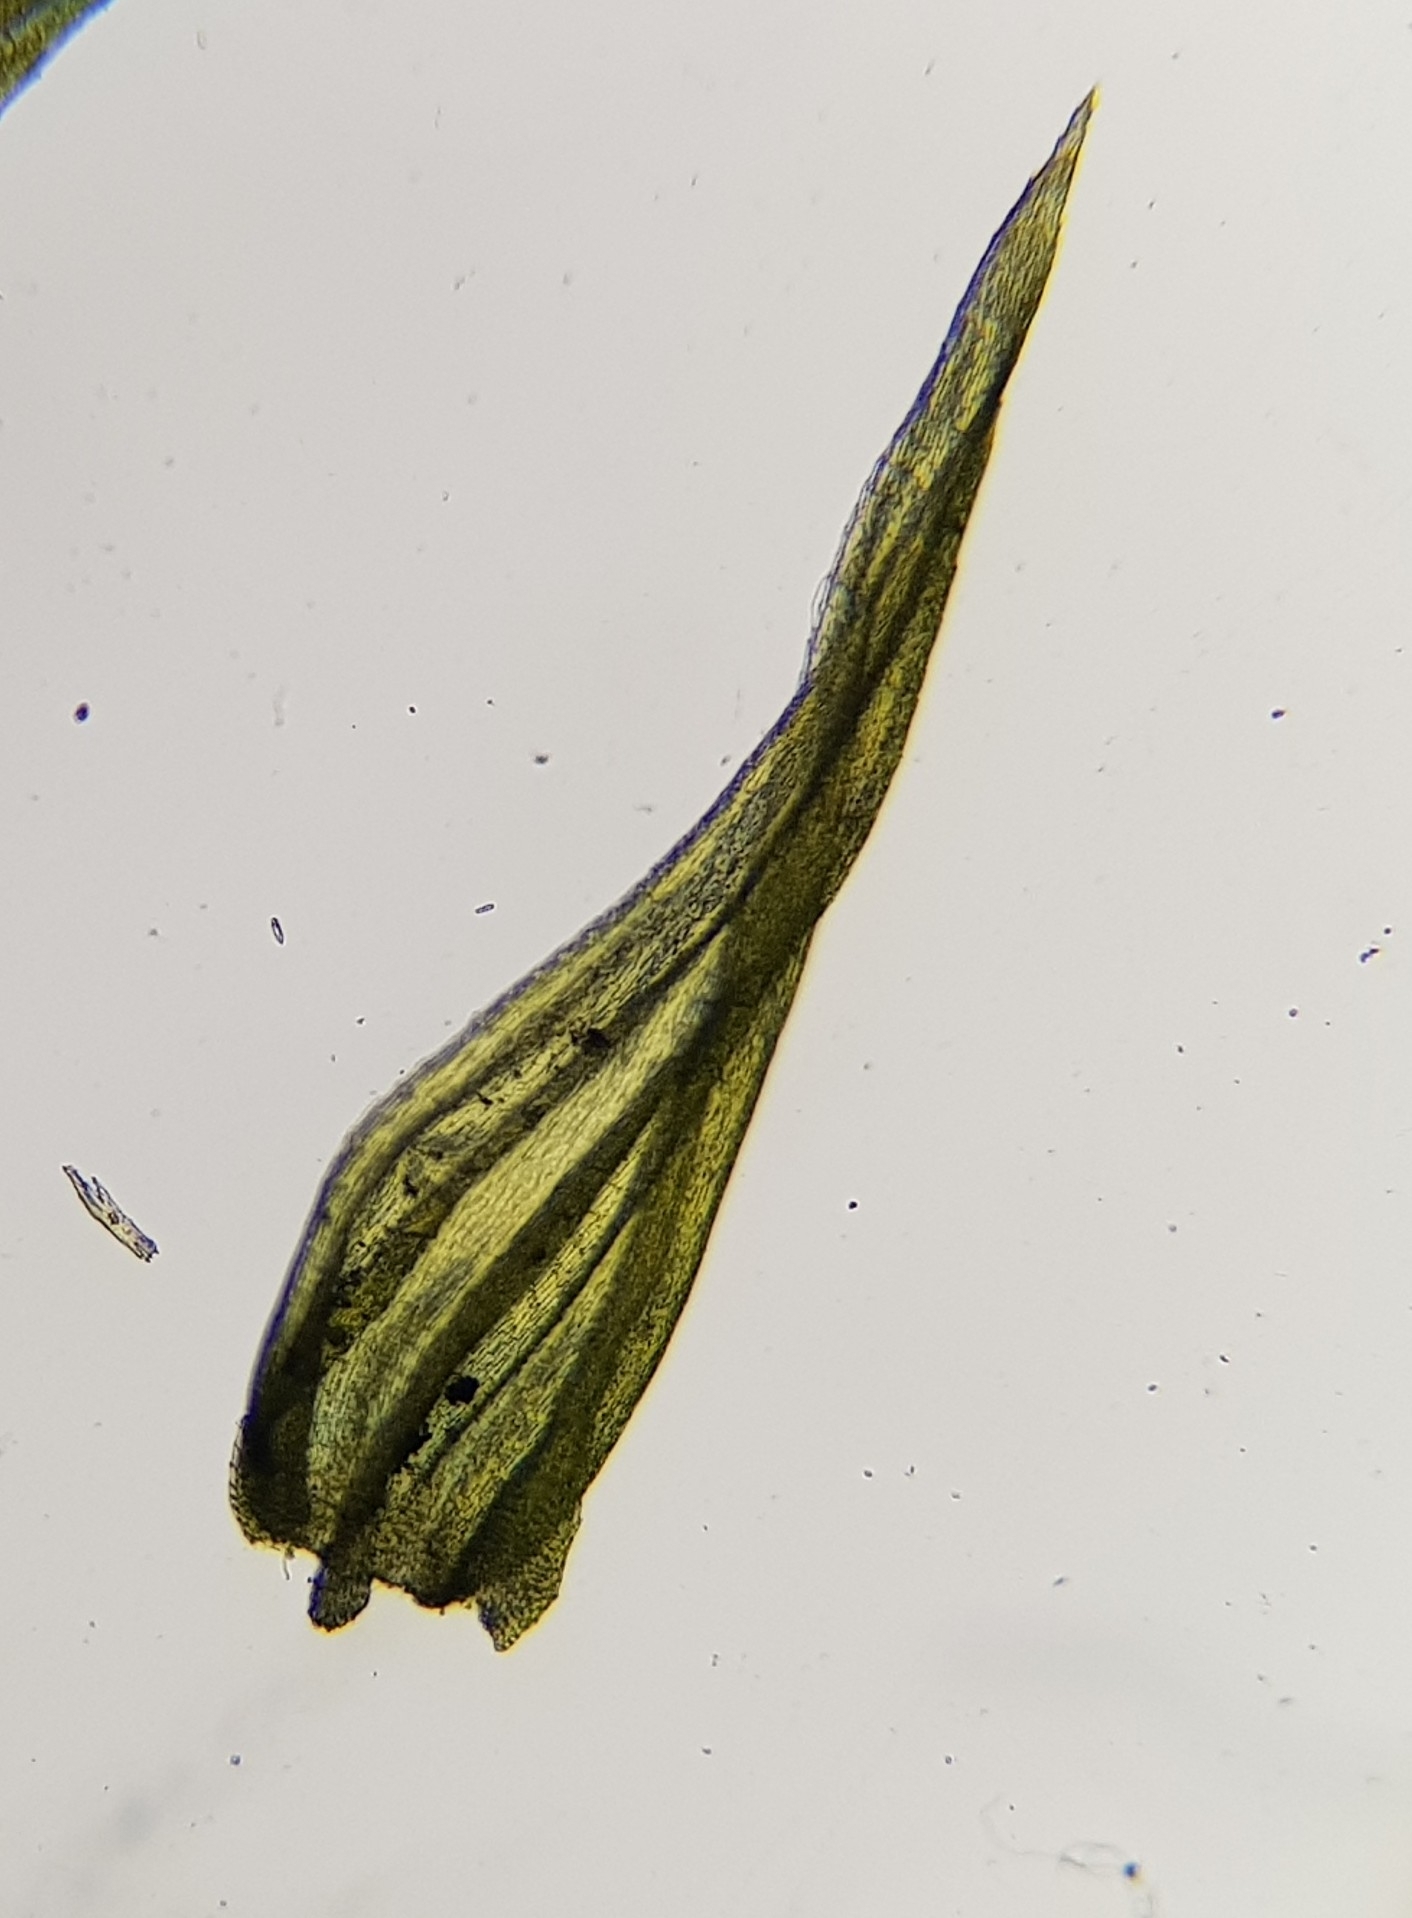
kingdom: Plantae
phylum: Bryophyta
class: Bryopsida
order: Hypnales
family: Brachytheciaceae
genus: Homalothecium
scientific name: Homalothecium sericeum
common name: Silky wall feather-moss
